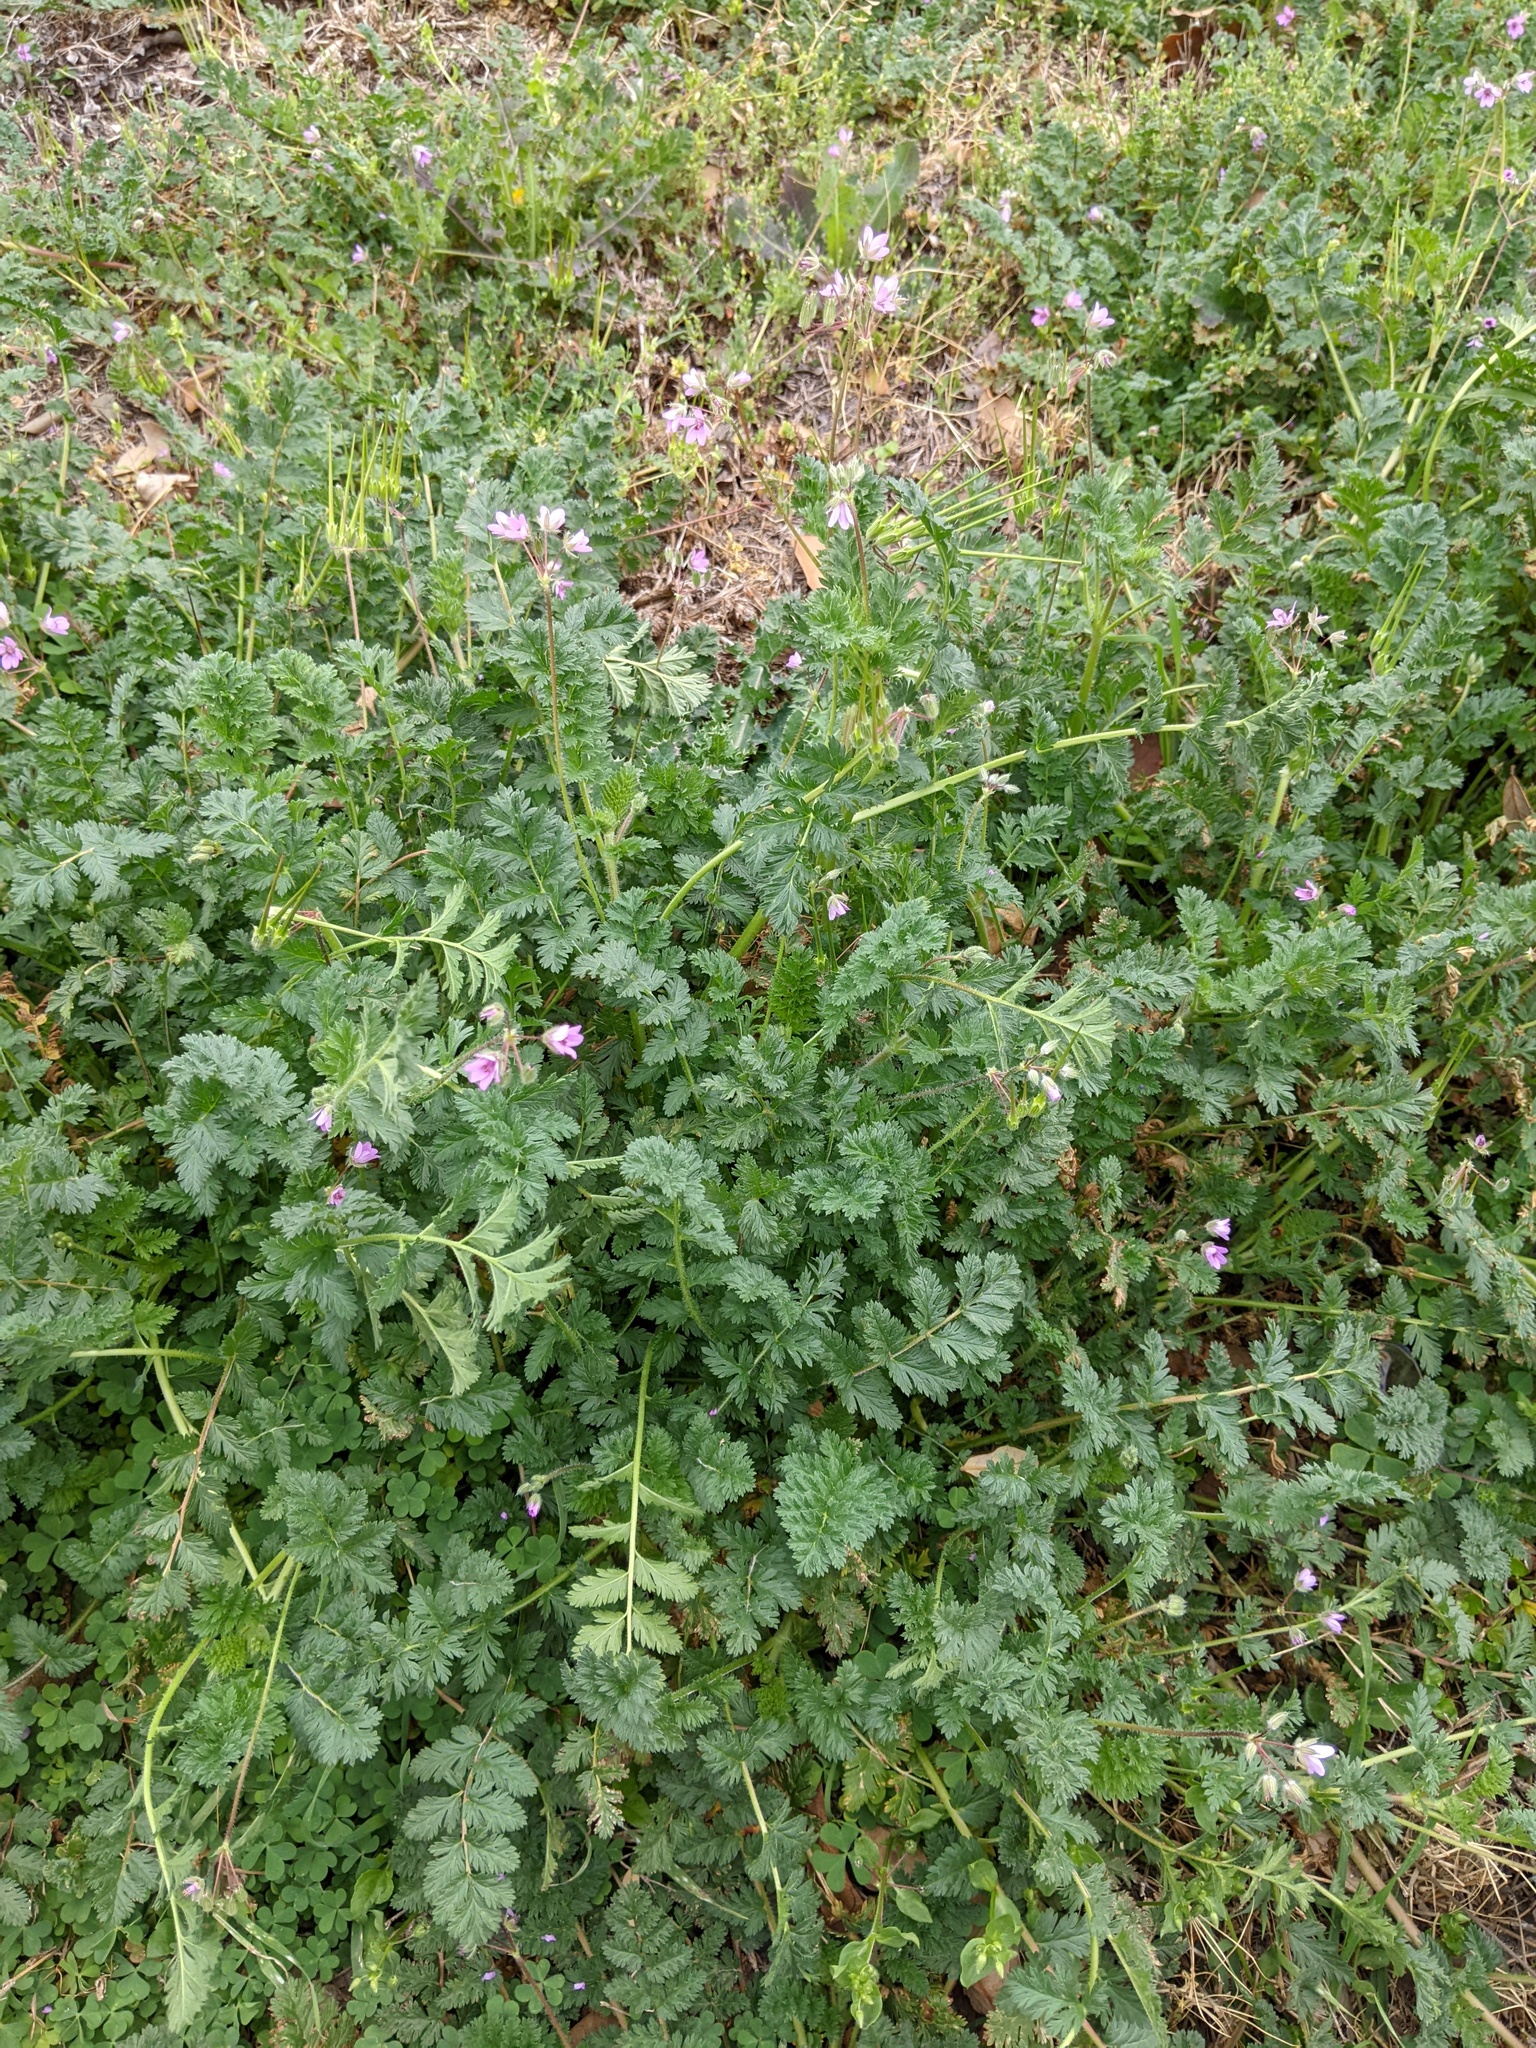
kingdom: Plantae
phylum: Tracheophyta
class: Magnoliopsida
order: Geraniales
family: Geraniaceae
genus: Erodium
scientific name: Erodium cicutarium
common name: Common stork's-bill
